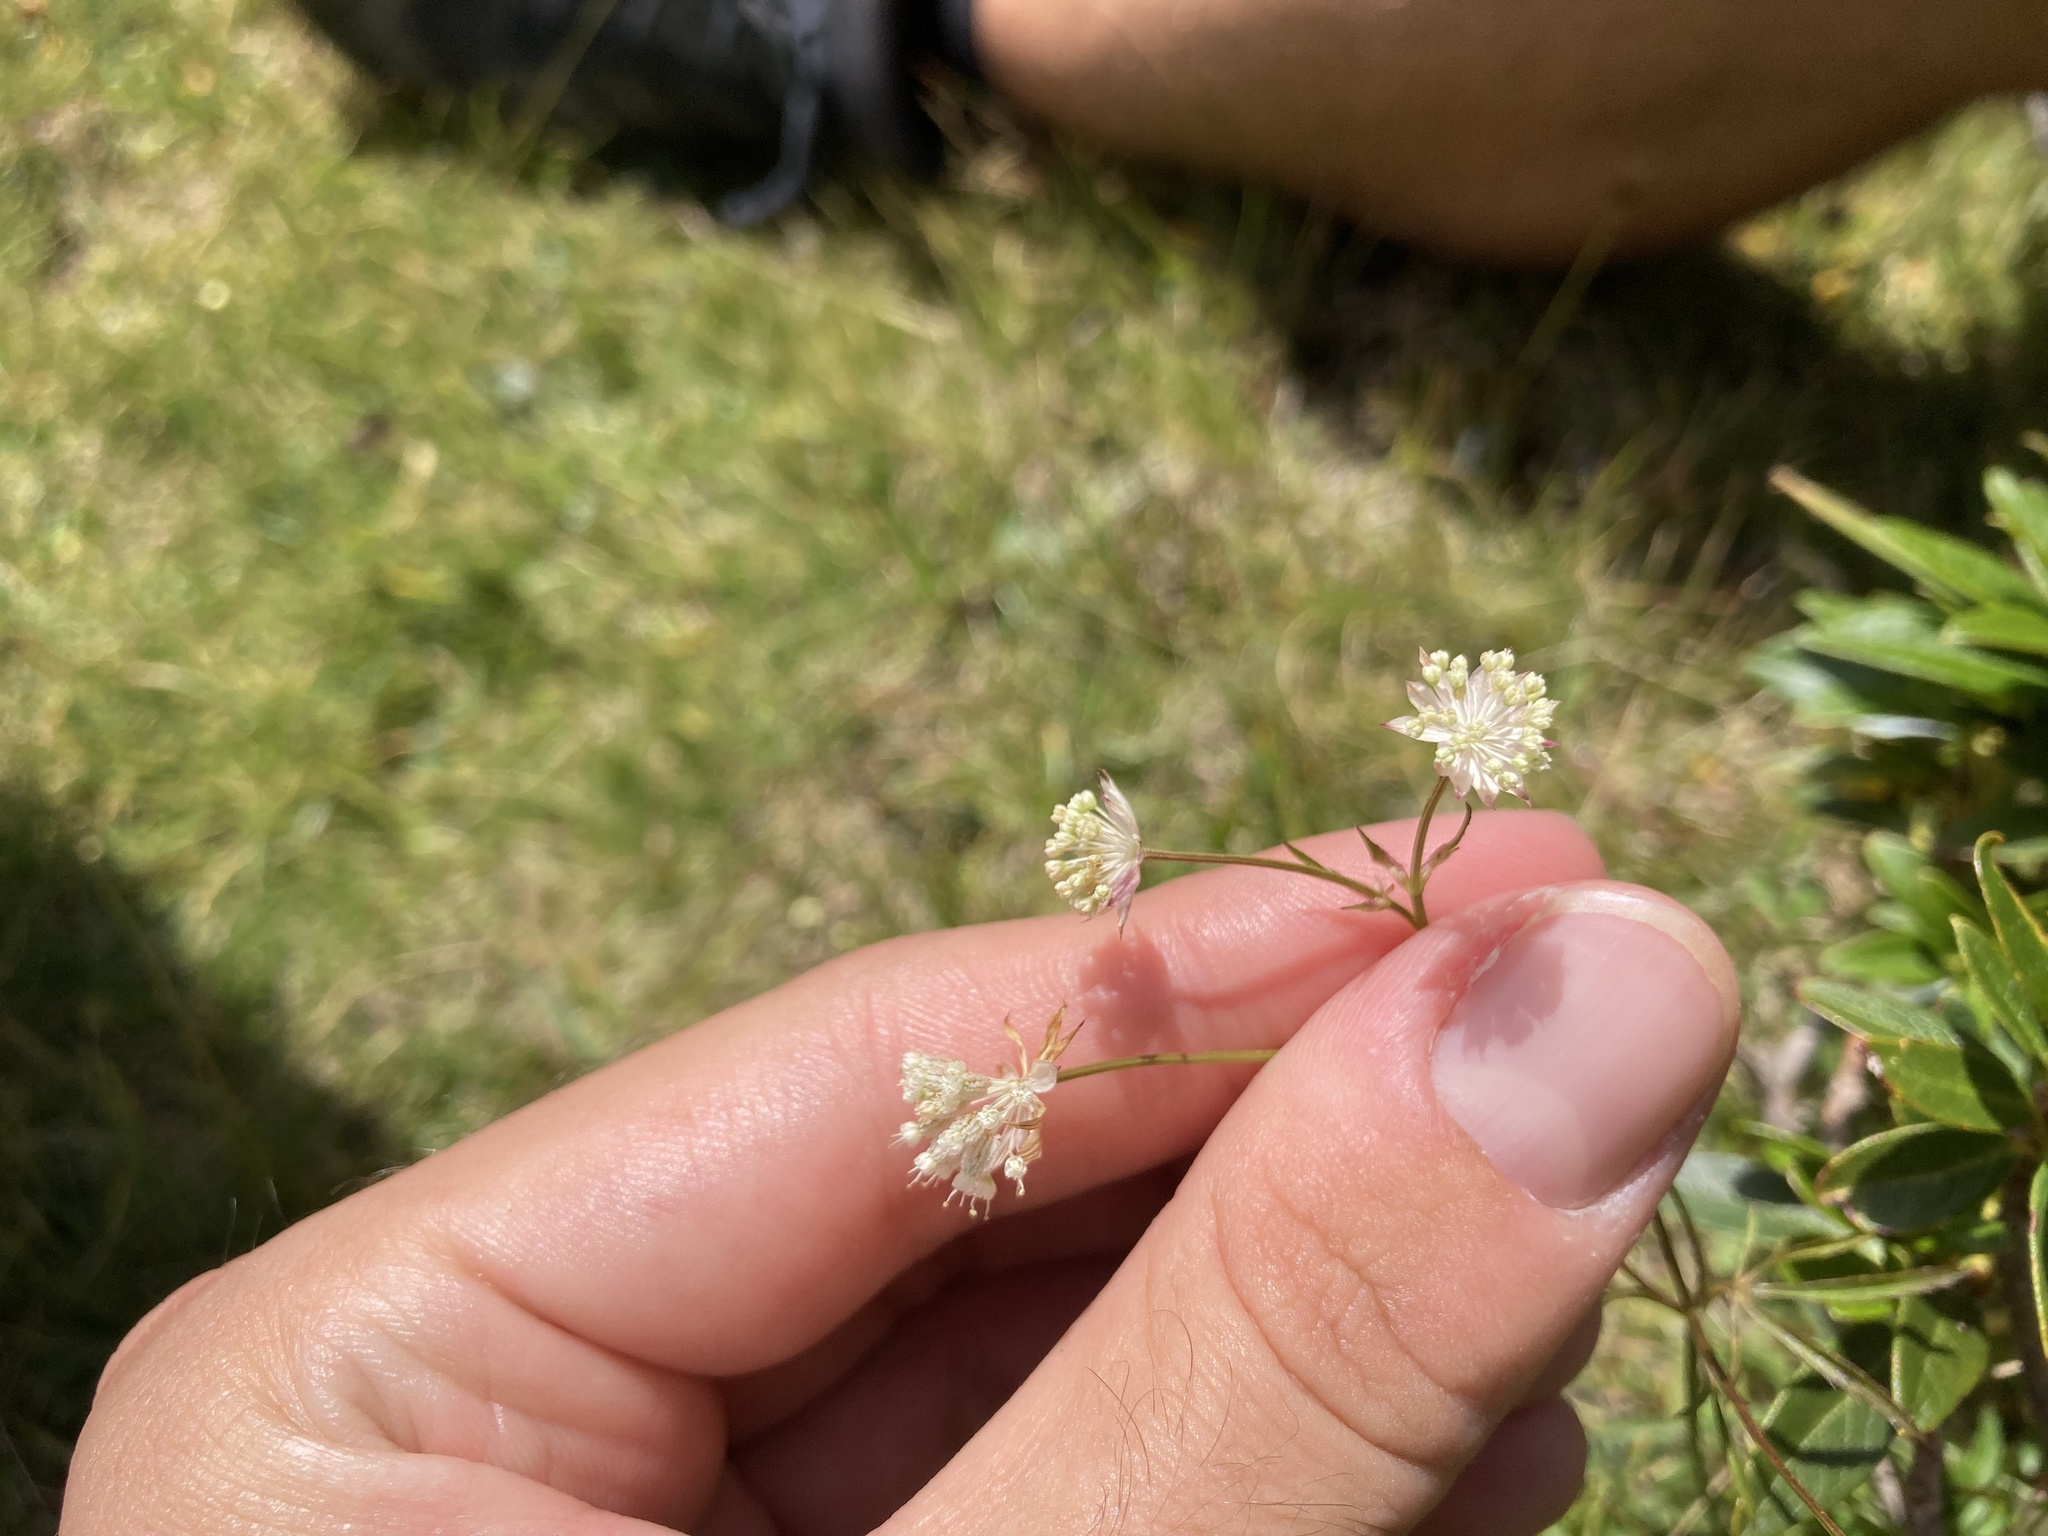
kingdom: Plantae
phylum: Tracheophyta
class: Magnoliopsida
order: Apiales
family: Apiaceae
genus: Astrantia
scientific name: Astrantia minor
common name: Lesser masterwort
